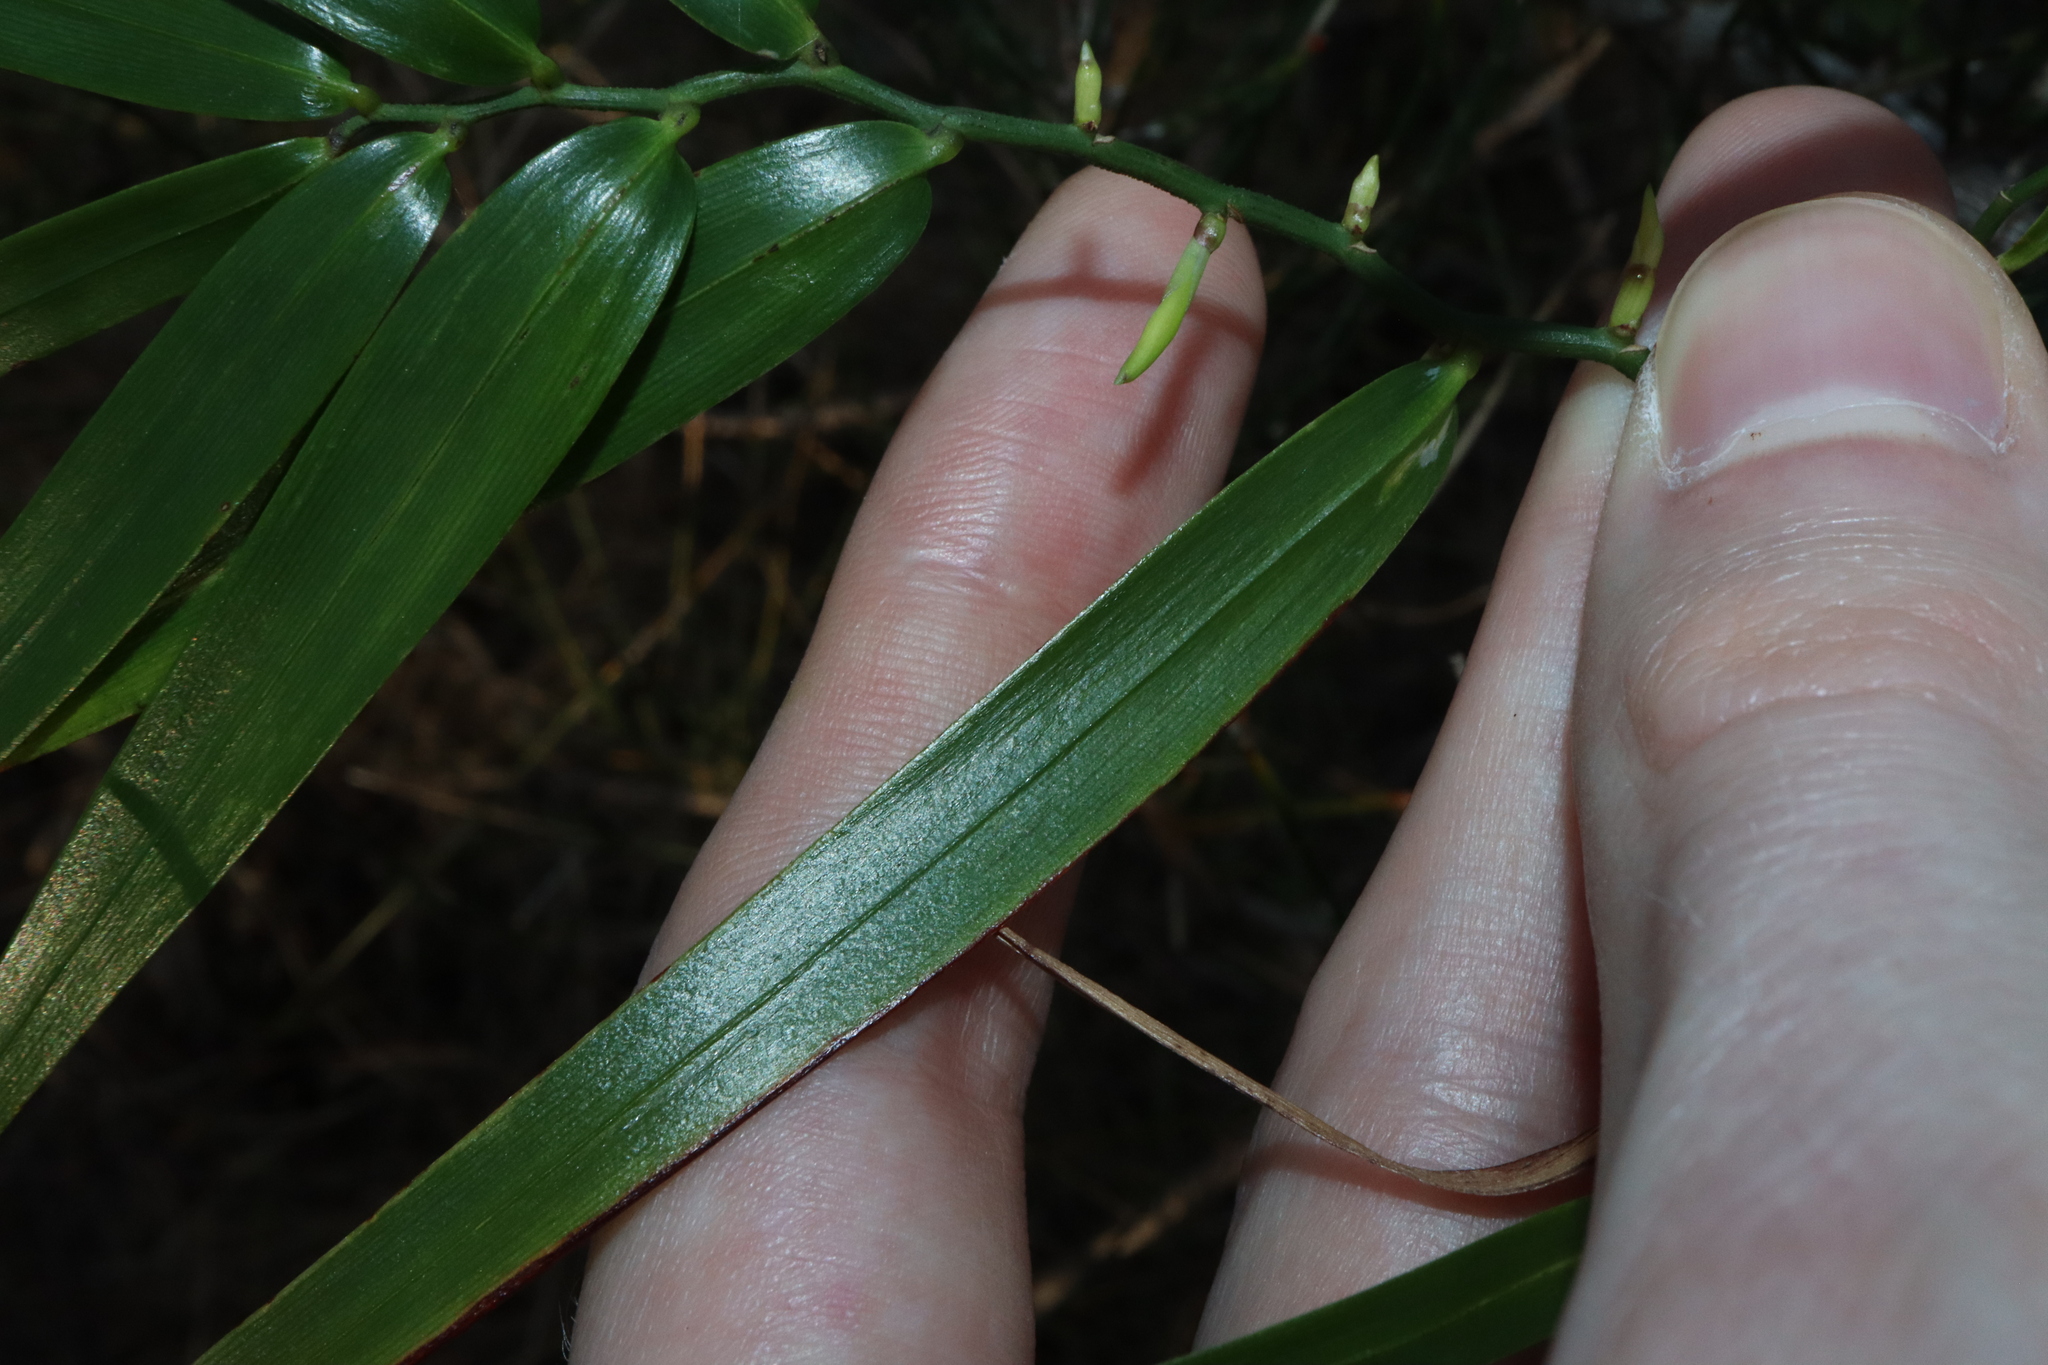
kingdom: Plantae
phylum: Tracheophyta
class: Liliopsida
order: Asparagales
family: Asphodelaceae
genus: Geitonoplesium
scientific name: Geitonoplesium cymosum
